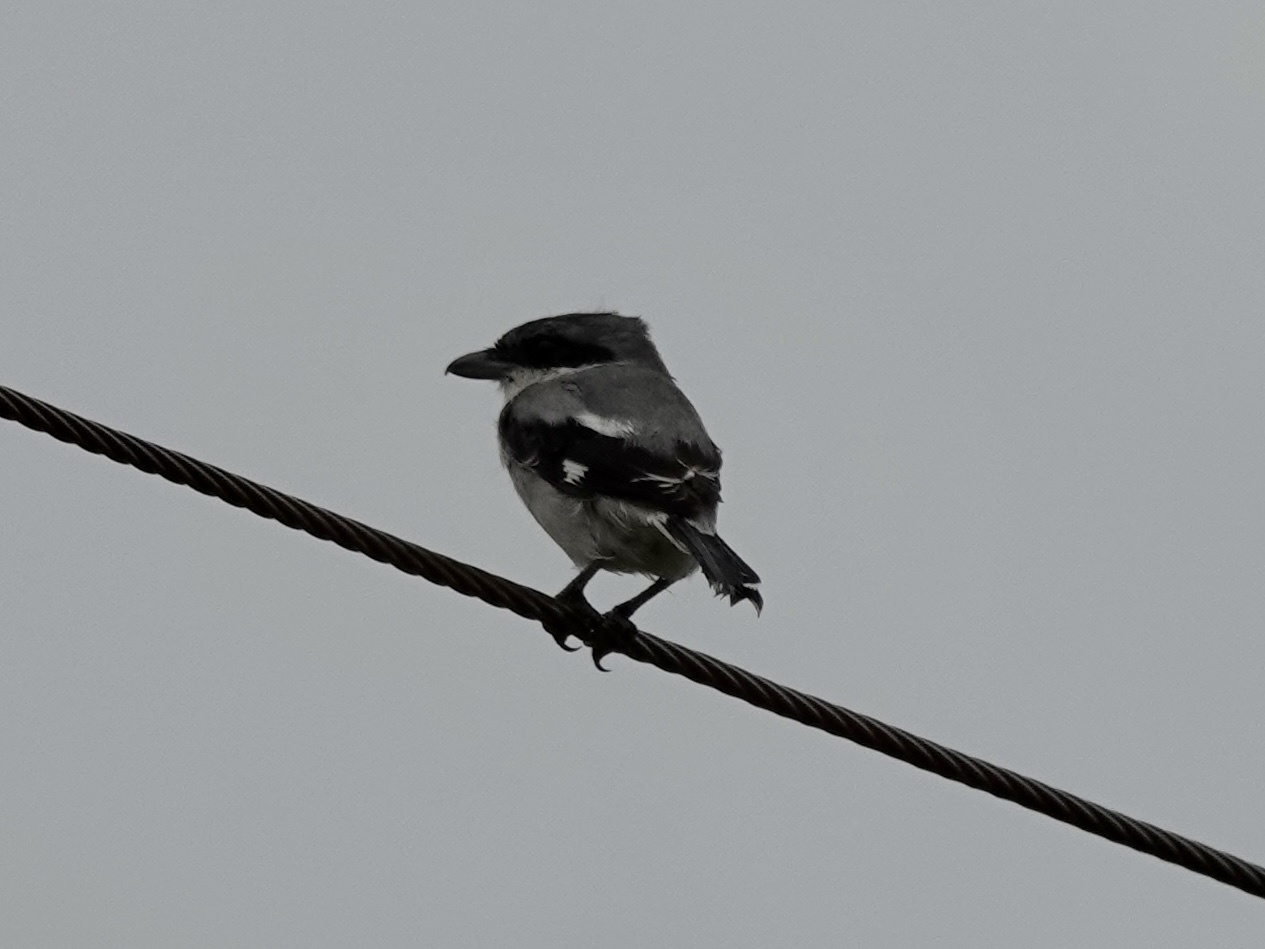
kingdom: Animalia
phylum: Chordata
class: Aves
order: Passeriformes
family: Laniidae
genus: Lanius
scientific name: Lanius ludovicianus
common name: Loggerhead shrike
